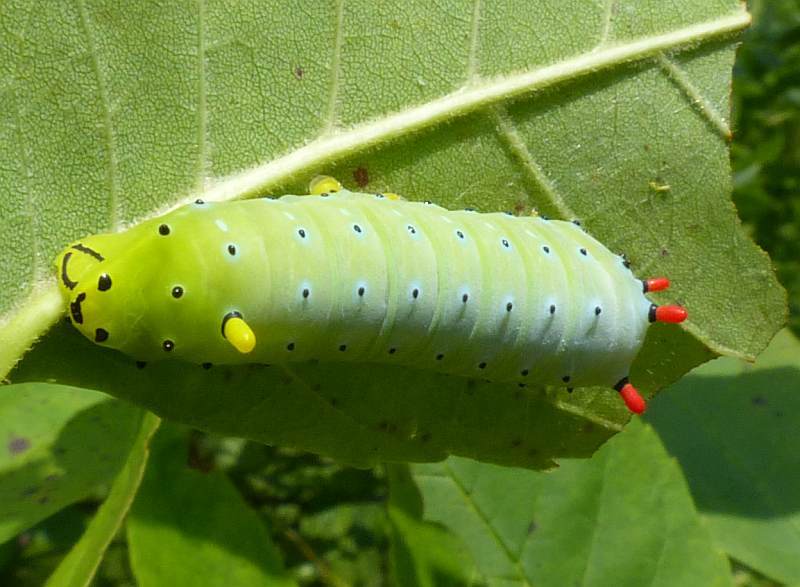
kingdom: Animalia
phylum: Arthropoda
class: Insecta
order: Lepidoptera
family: Saturniidae
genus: Callosamia
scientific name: Callosamia promethea
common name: Promethea silkmoth
